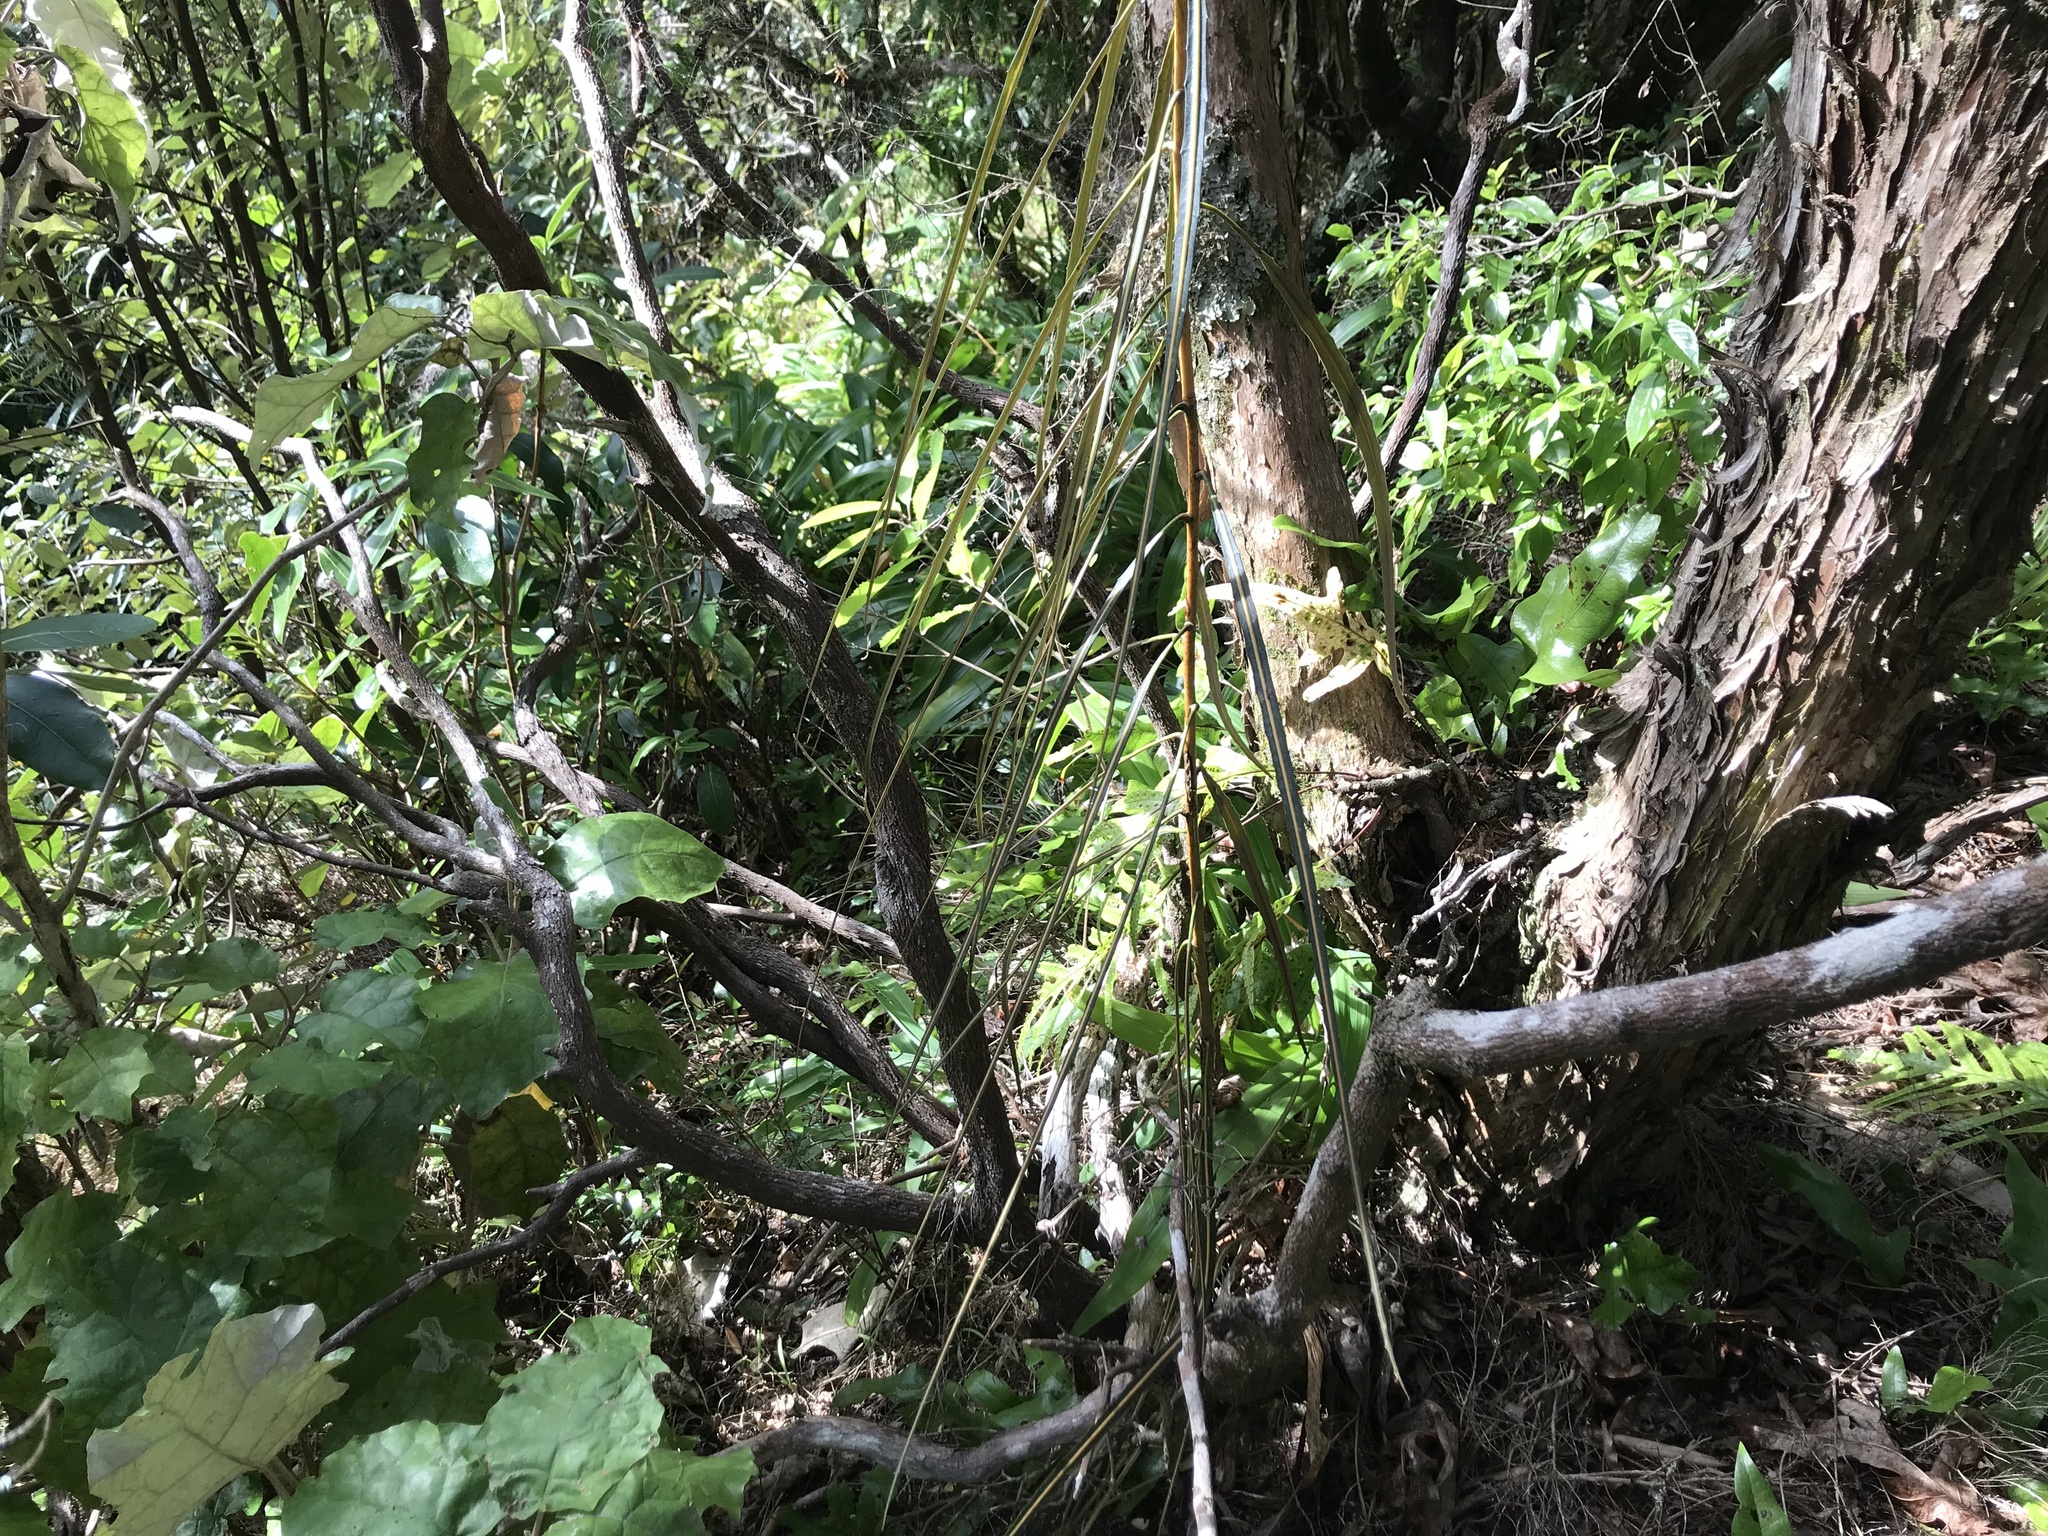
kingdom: Plantae
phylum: Tracheophyta
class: Magnoliopsida
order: Apiales
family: Araliaceae
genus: Pseudopanax
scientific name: Pseudopanax crassifolius
